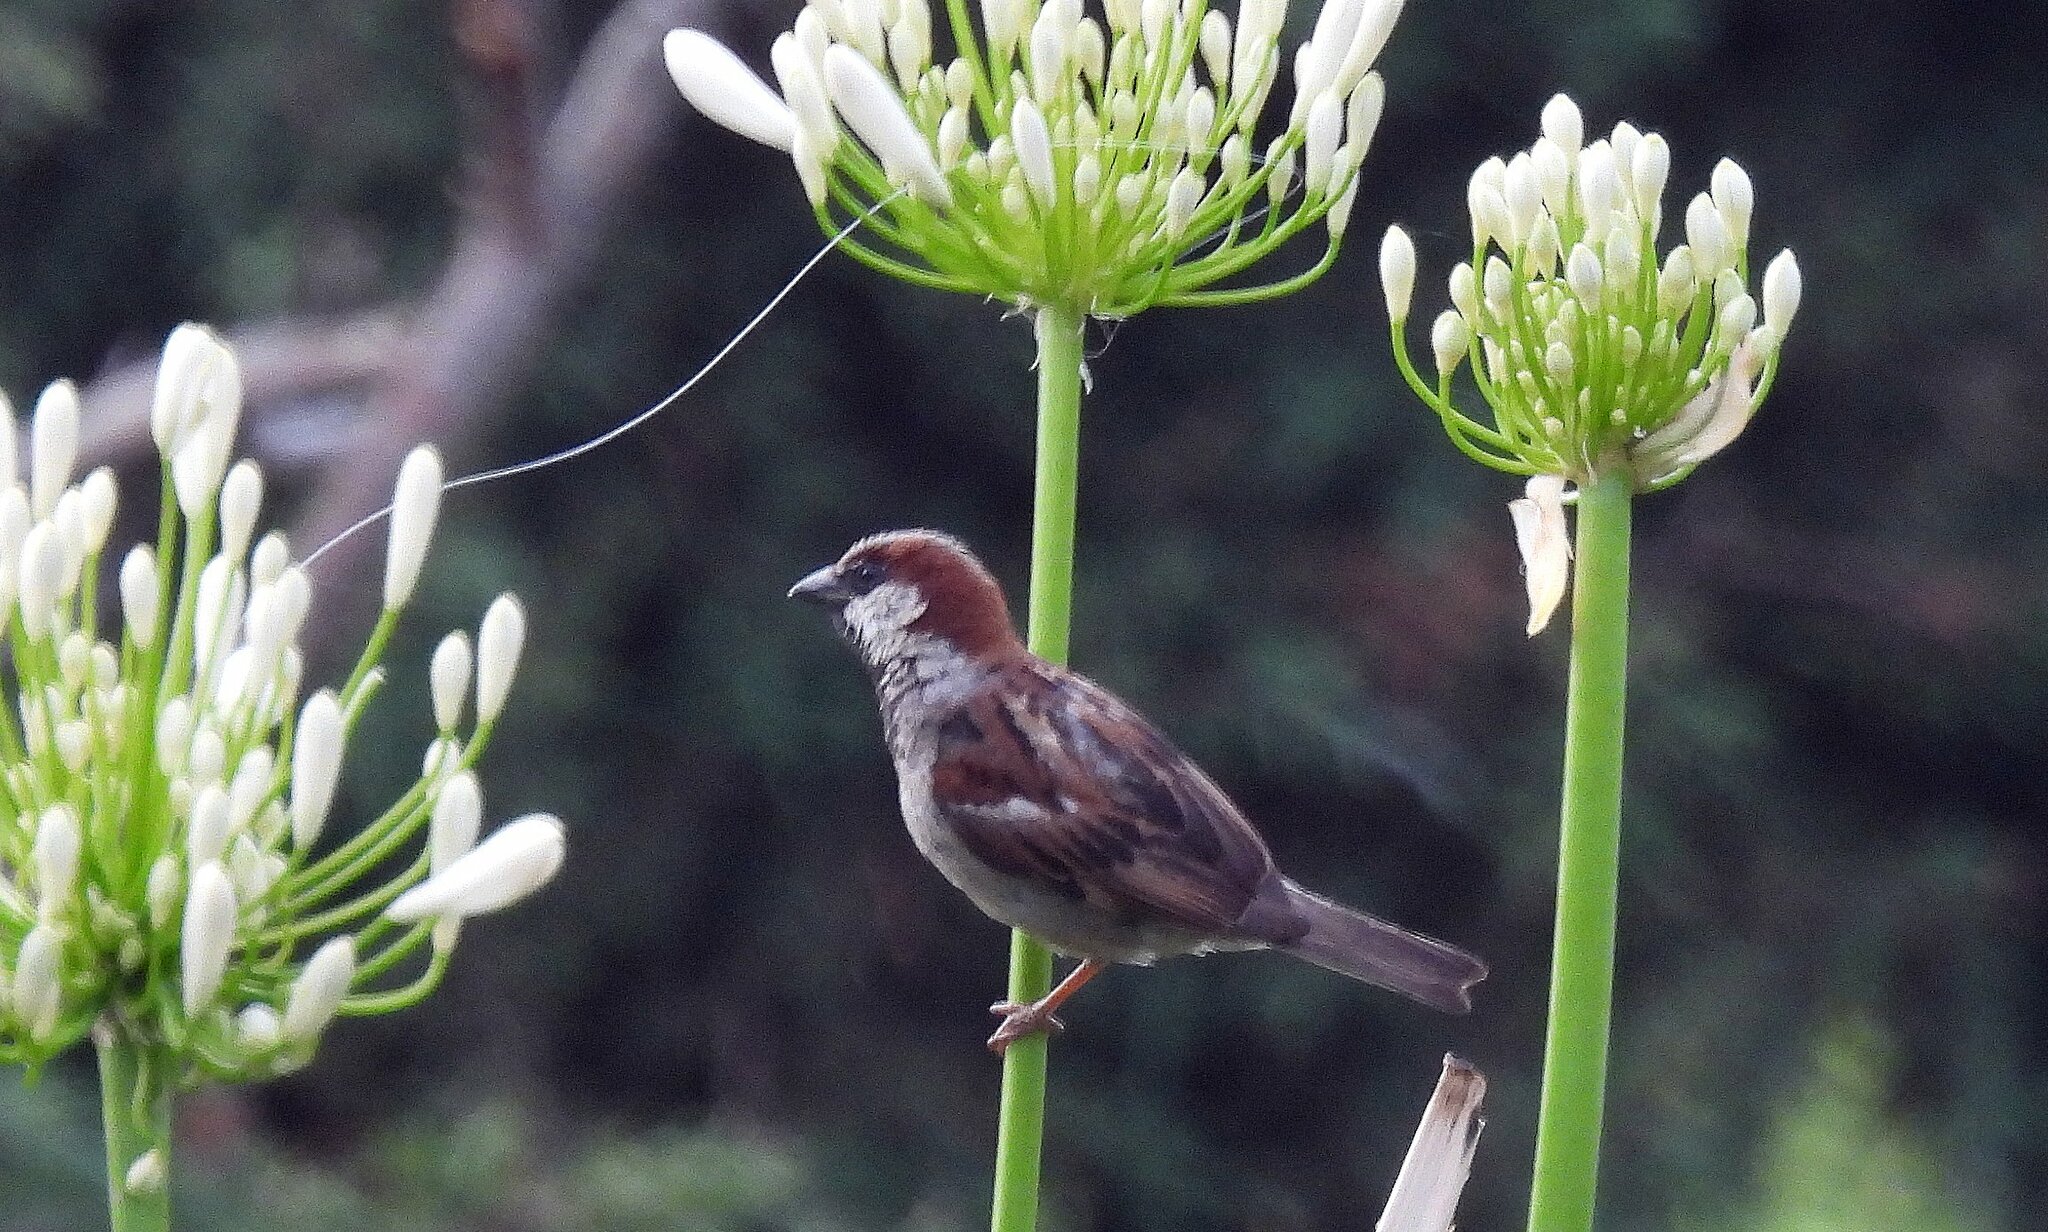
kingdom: Animalia
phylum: Chordata
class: Aves
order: Passeriformes
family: Passeridae
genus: Passer
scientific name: Passer domesticus
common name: House sparrow
